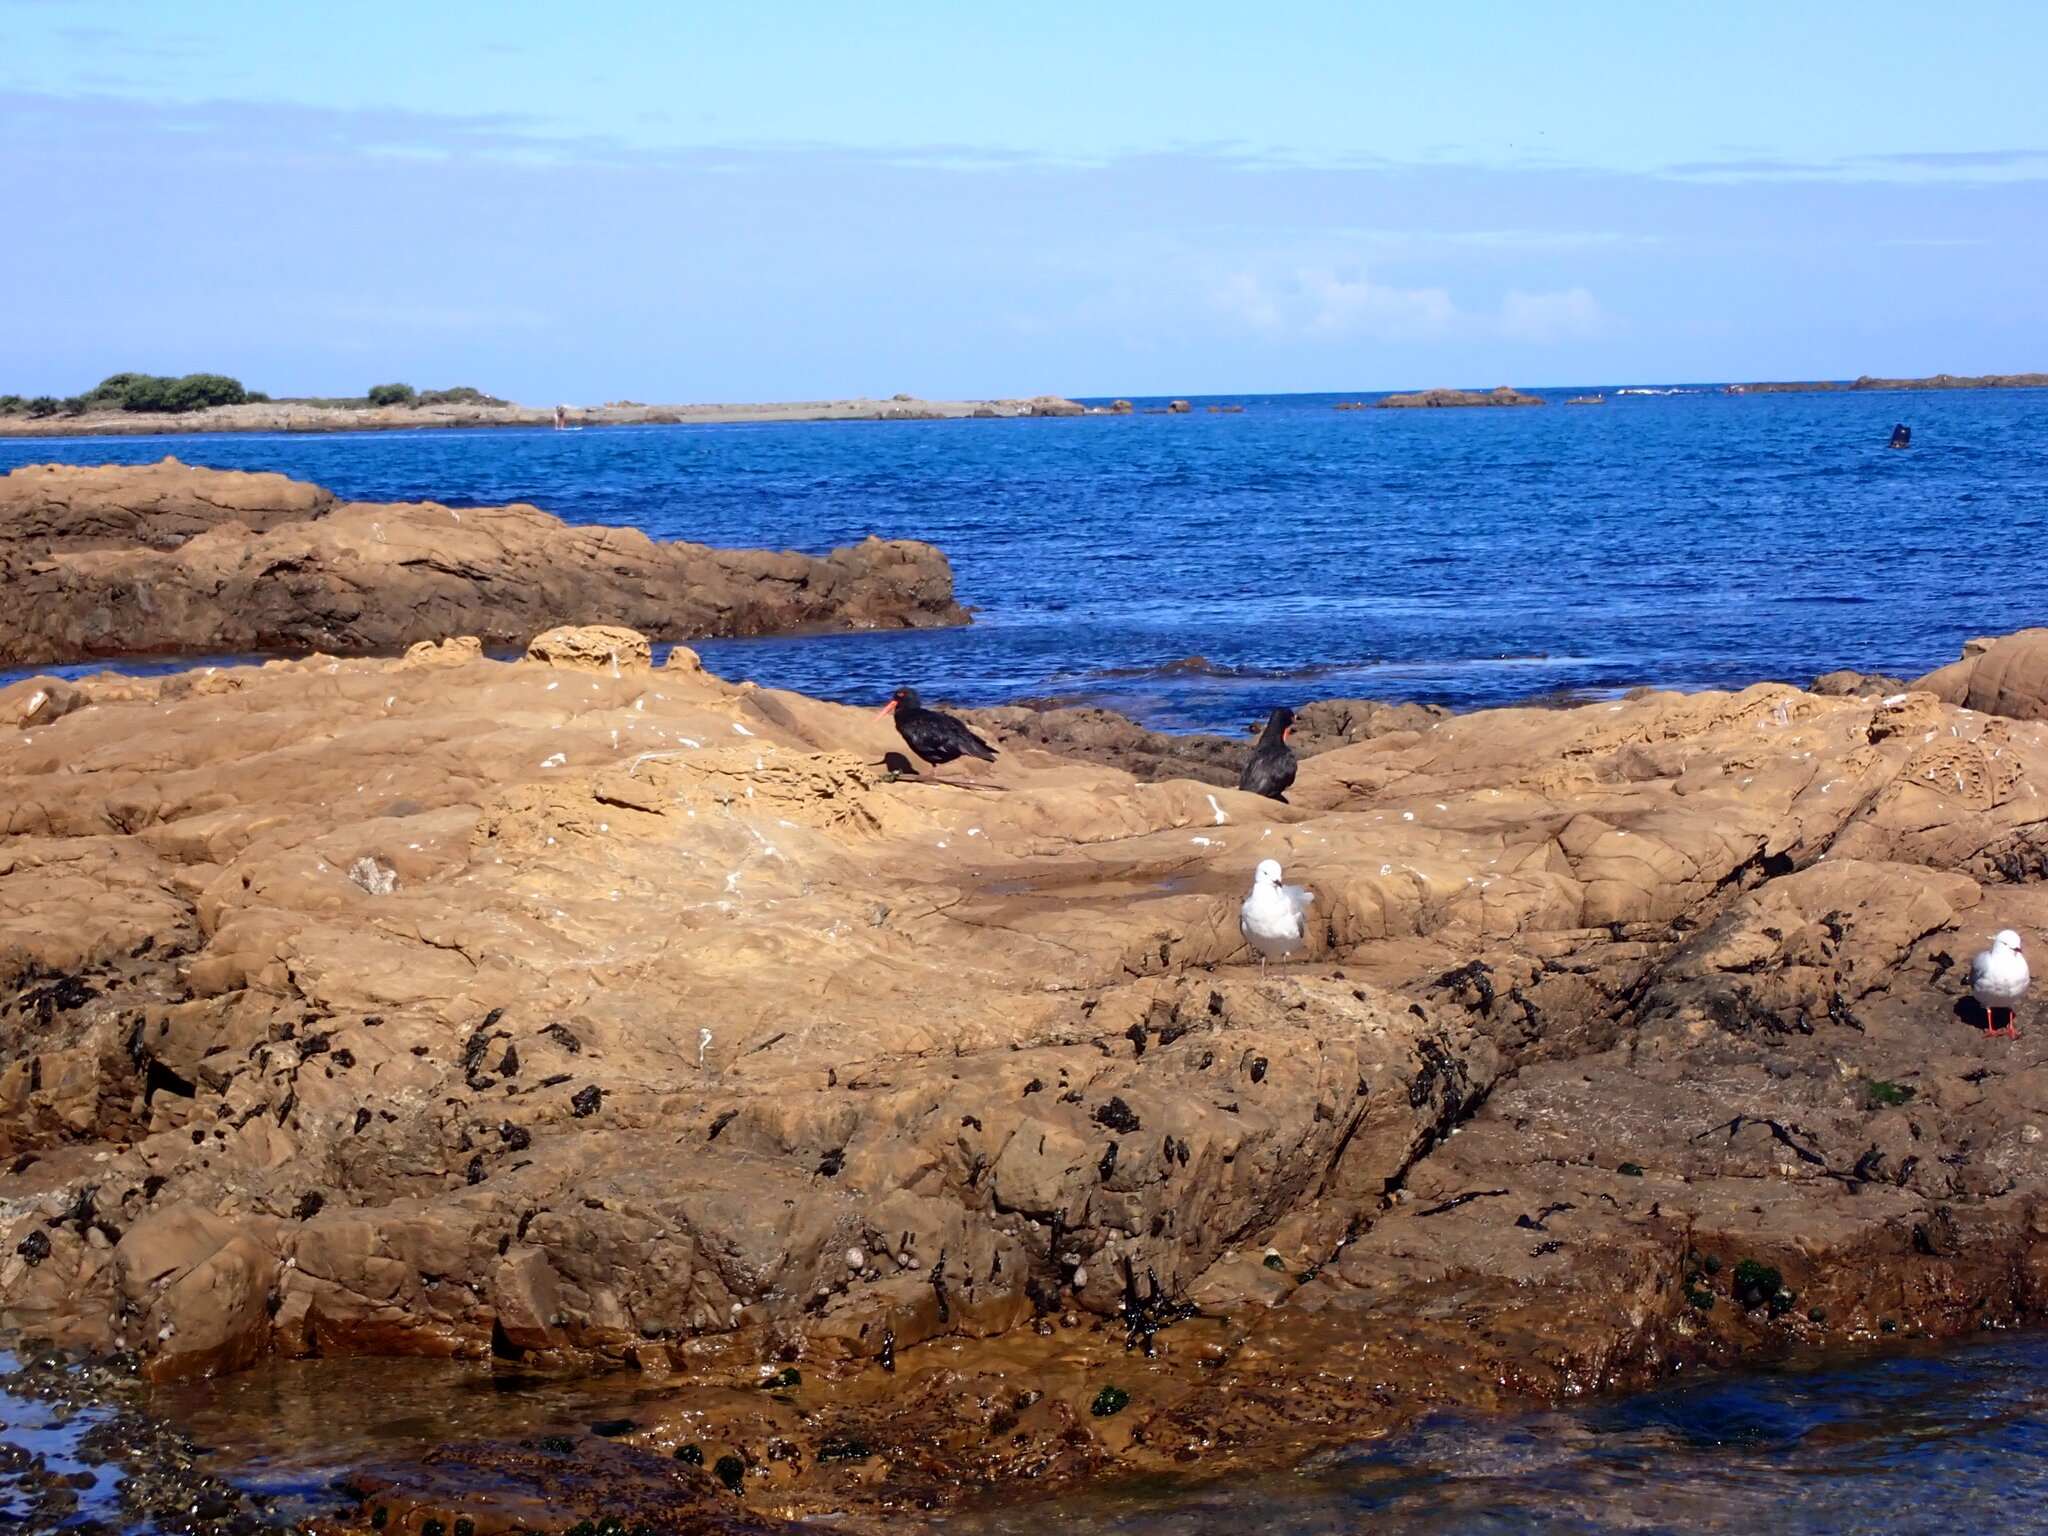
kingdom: Animalia
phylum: Chordata
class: Aves
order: Charadriiformes
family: Haematopodidae
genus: Haematopus
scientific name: Haematopus unicolor
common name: Variable oystercatcher
